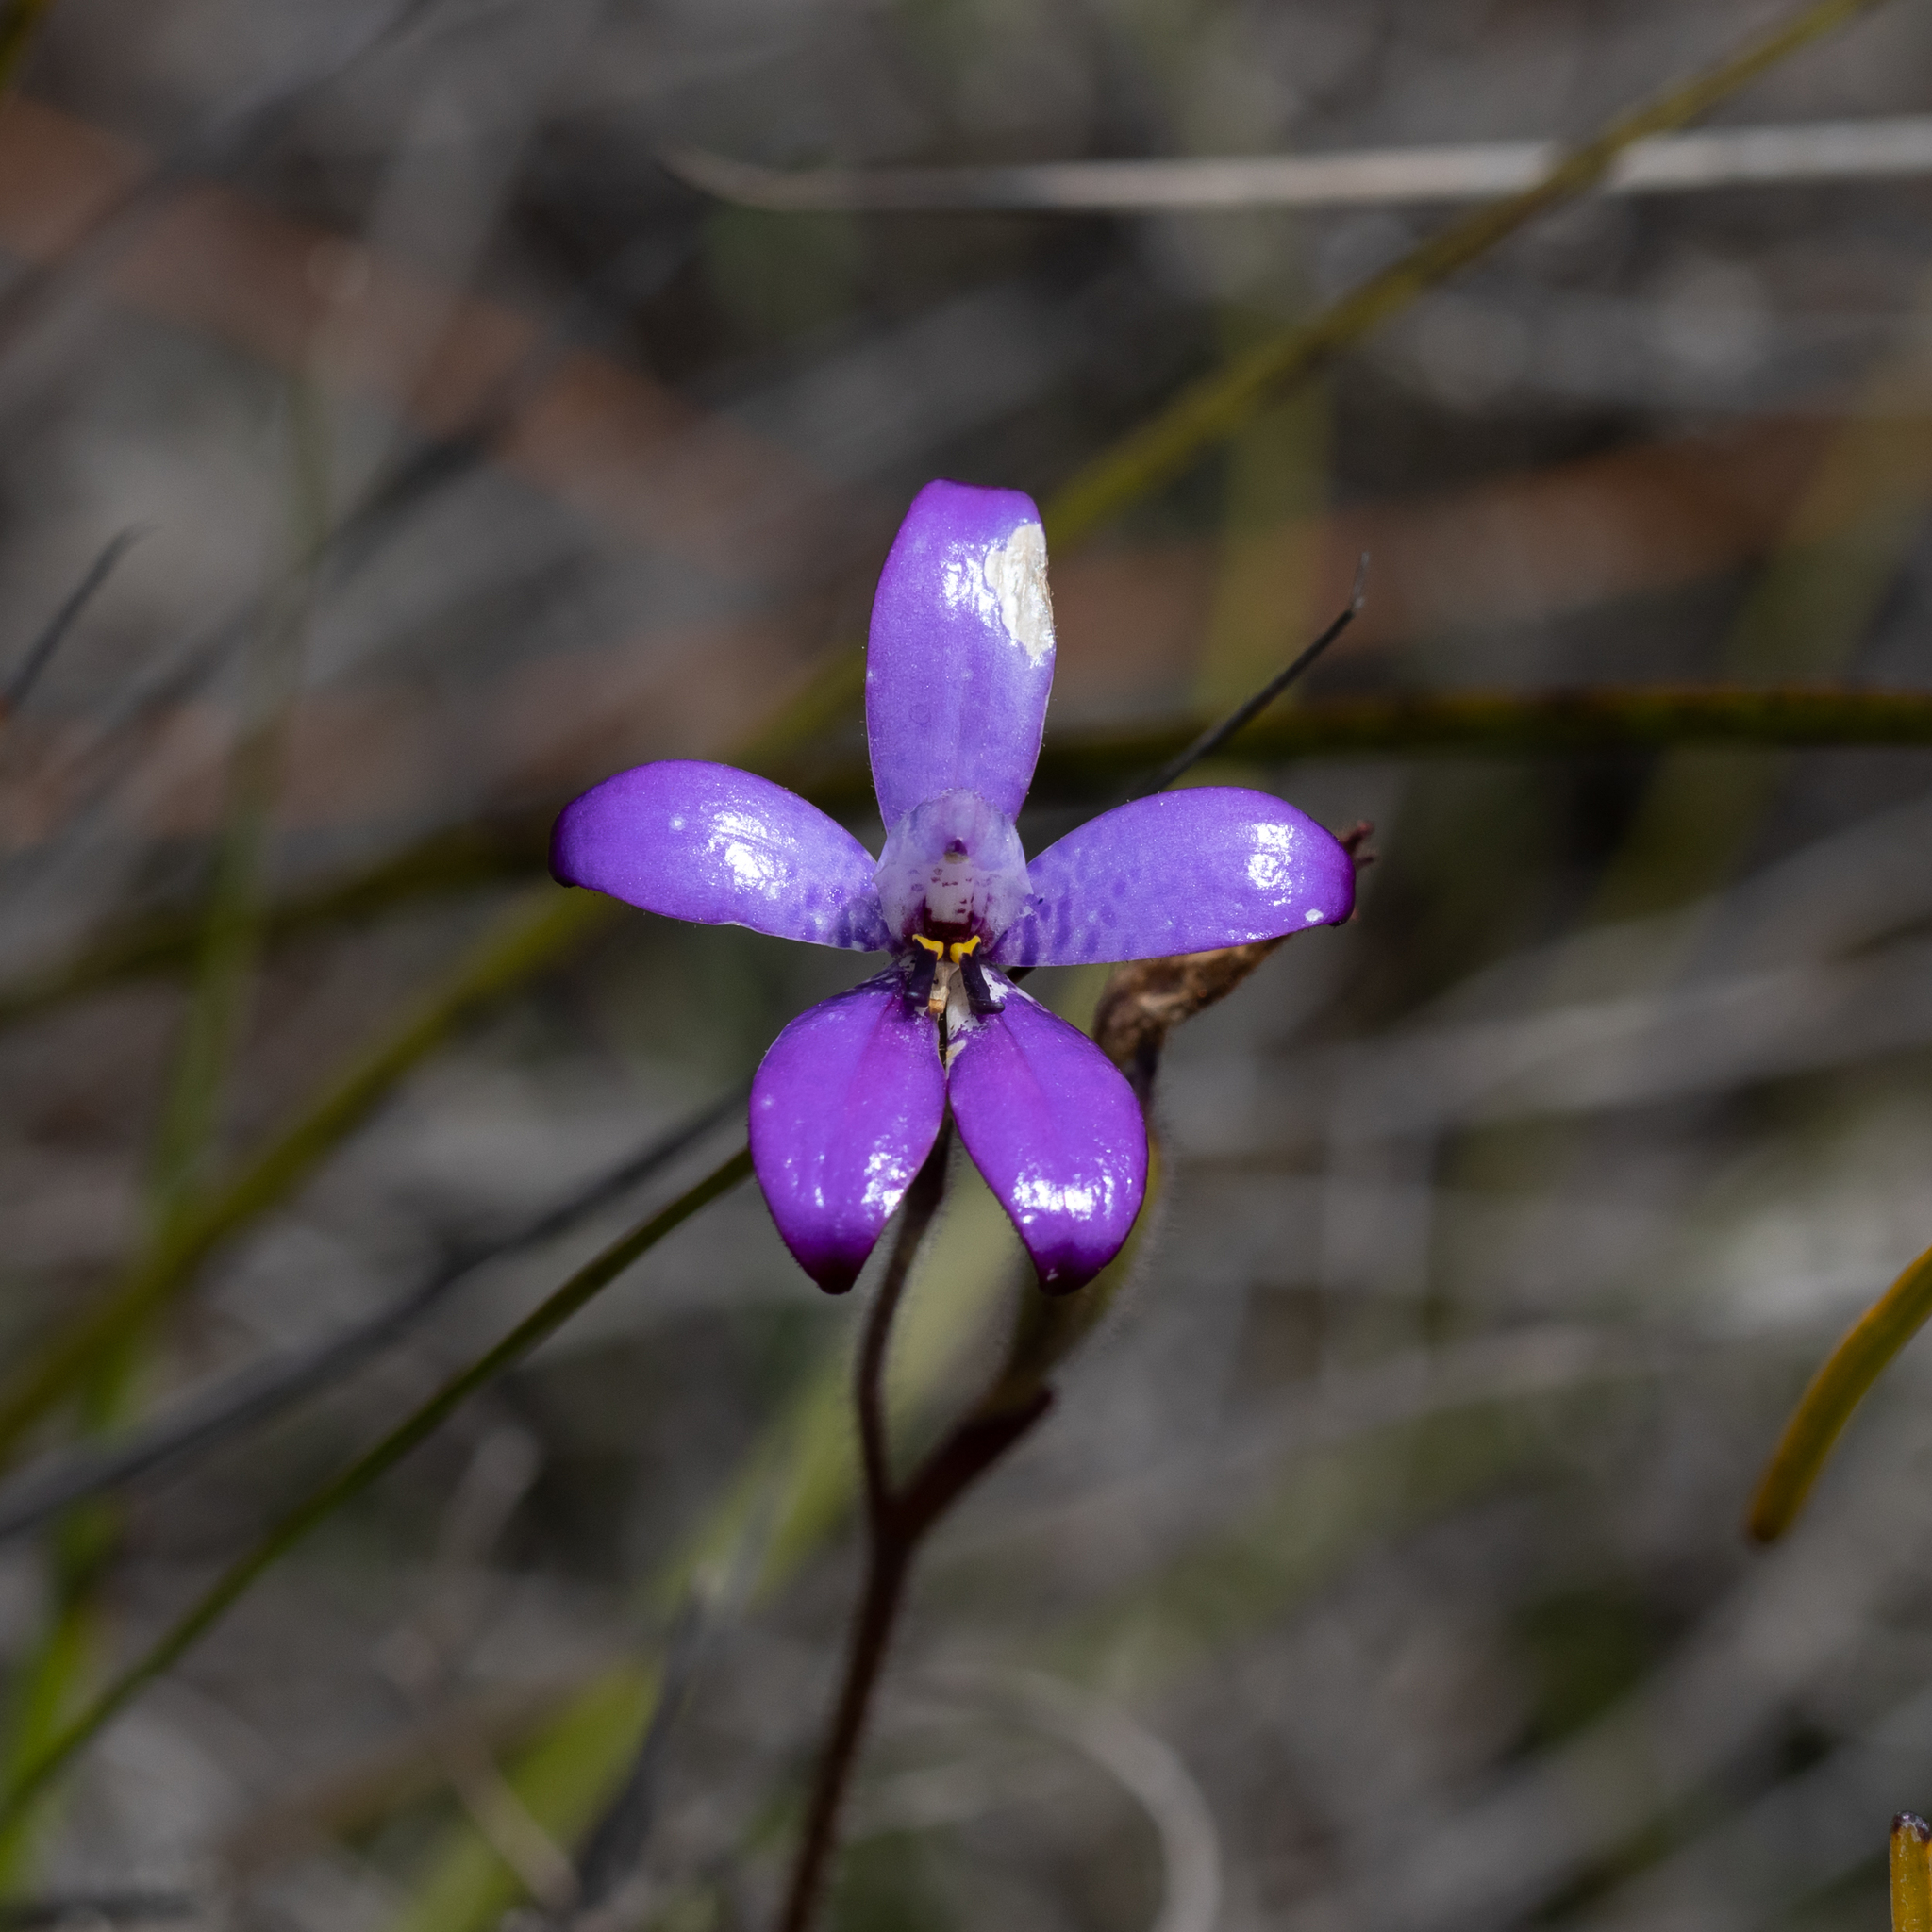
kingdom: Plantae
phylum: Tracheophyta
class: Liliopsida
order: Asparagales
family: Orchidaceae
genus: Caladenia
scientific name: Caladenia brunonis
